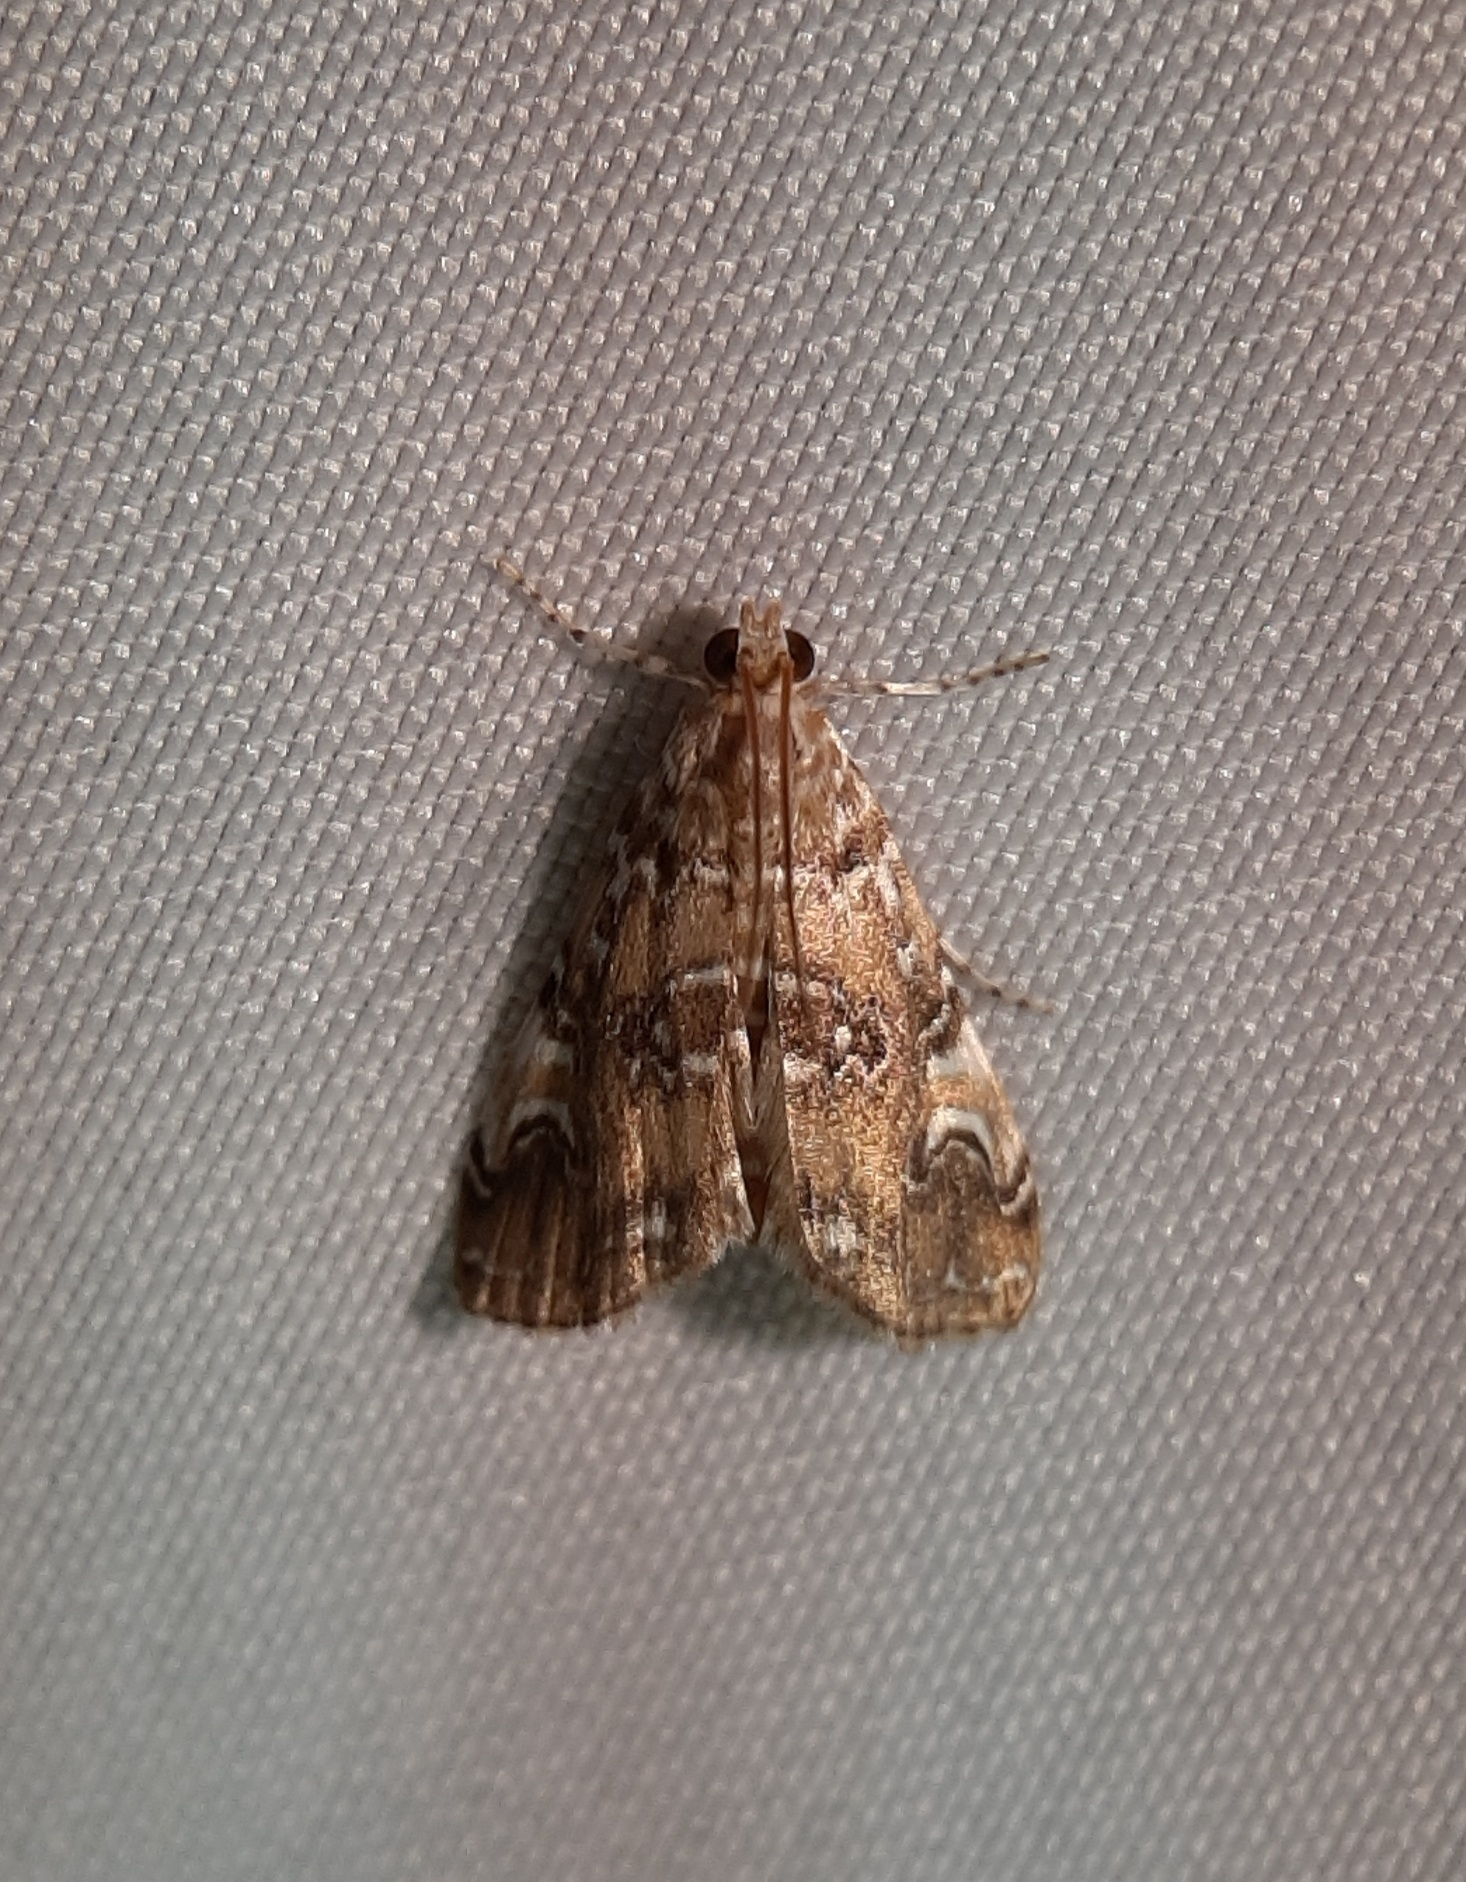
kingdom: Animalia
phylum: Arthropoda
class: Insecta
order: Lepidoptera
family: Crambidae
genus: Elophila
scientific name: Elophila gyralis
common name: Waterlily borer moth
